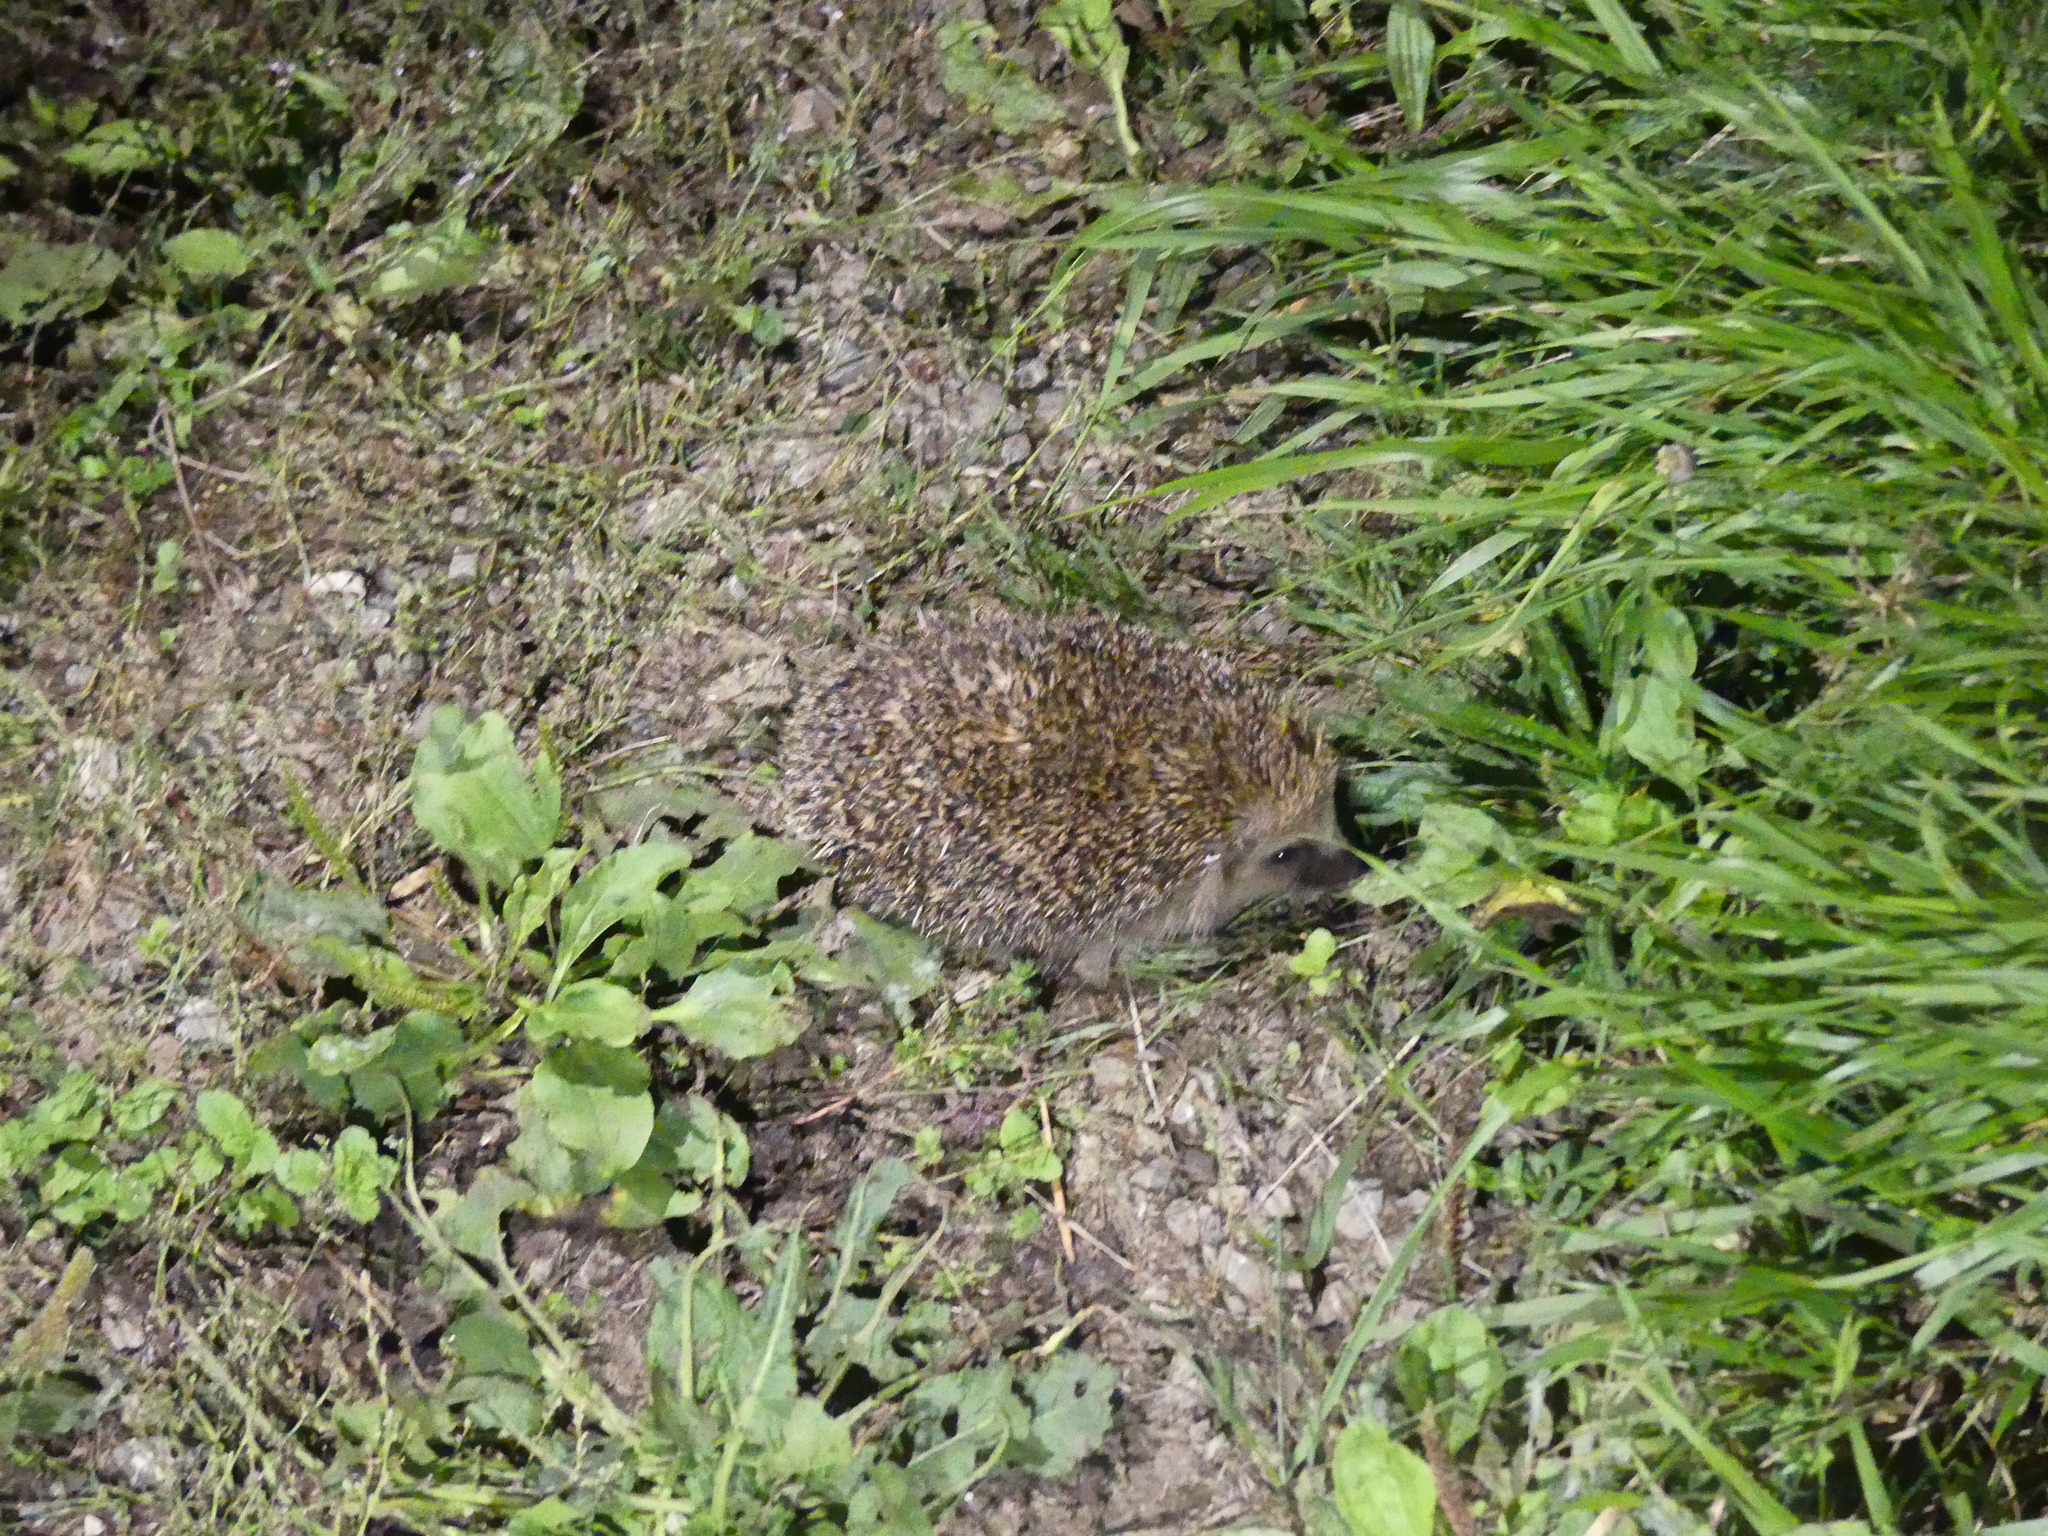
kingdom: Animalia
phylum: Chordata
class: Mammalia
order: Erinaceomorpha
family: Erinaceidae
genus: Erinaceus
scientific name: Erinaceus europaeus
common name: West european hedgehog
